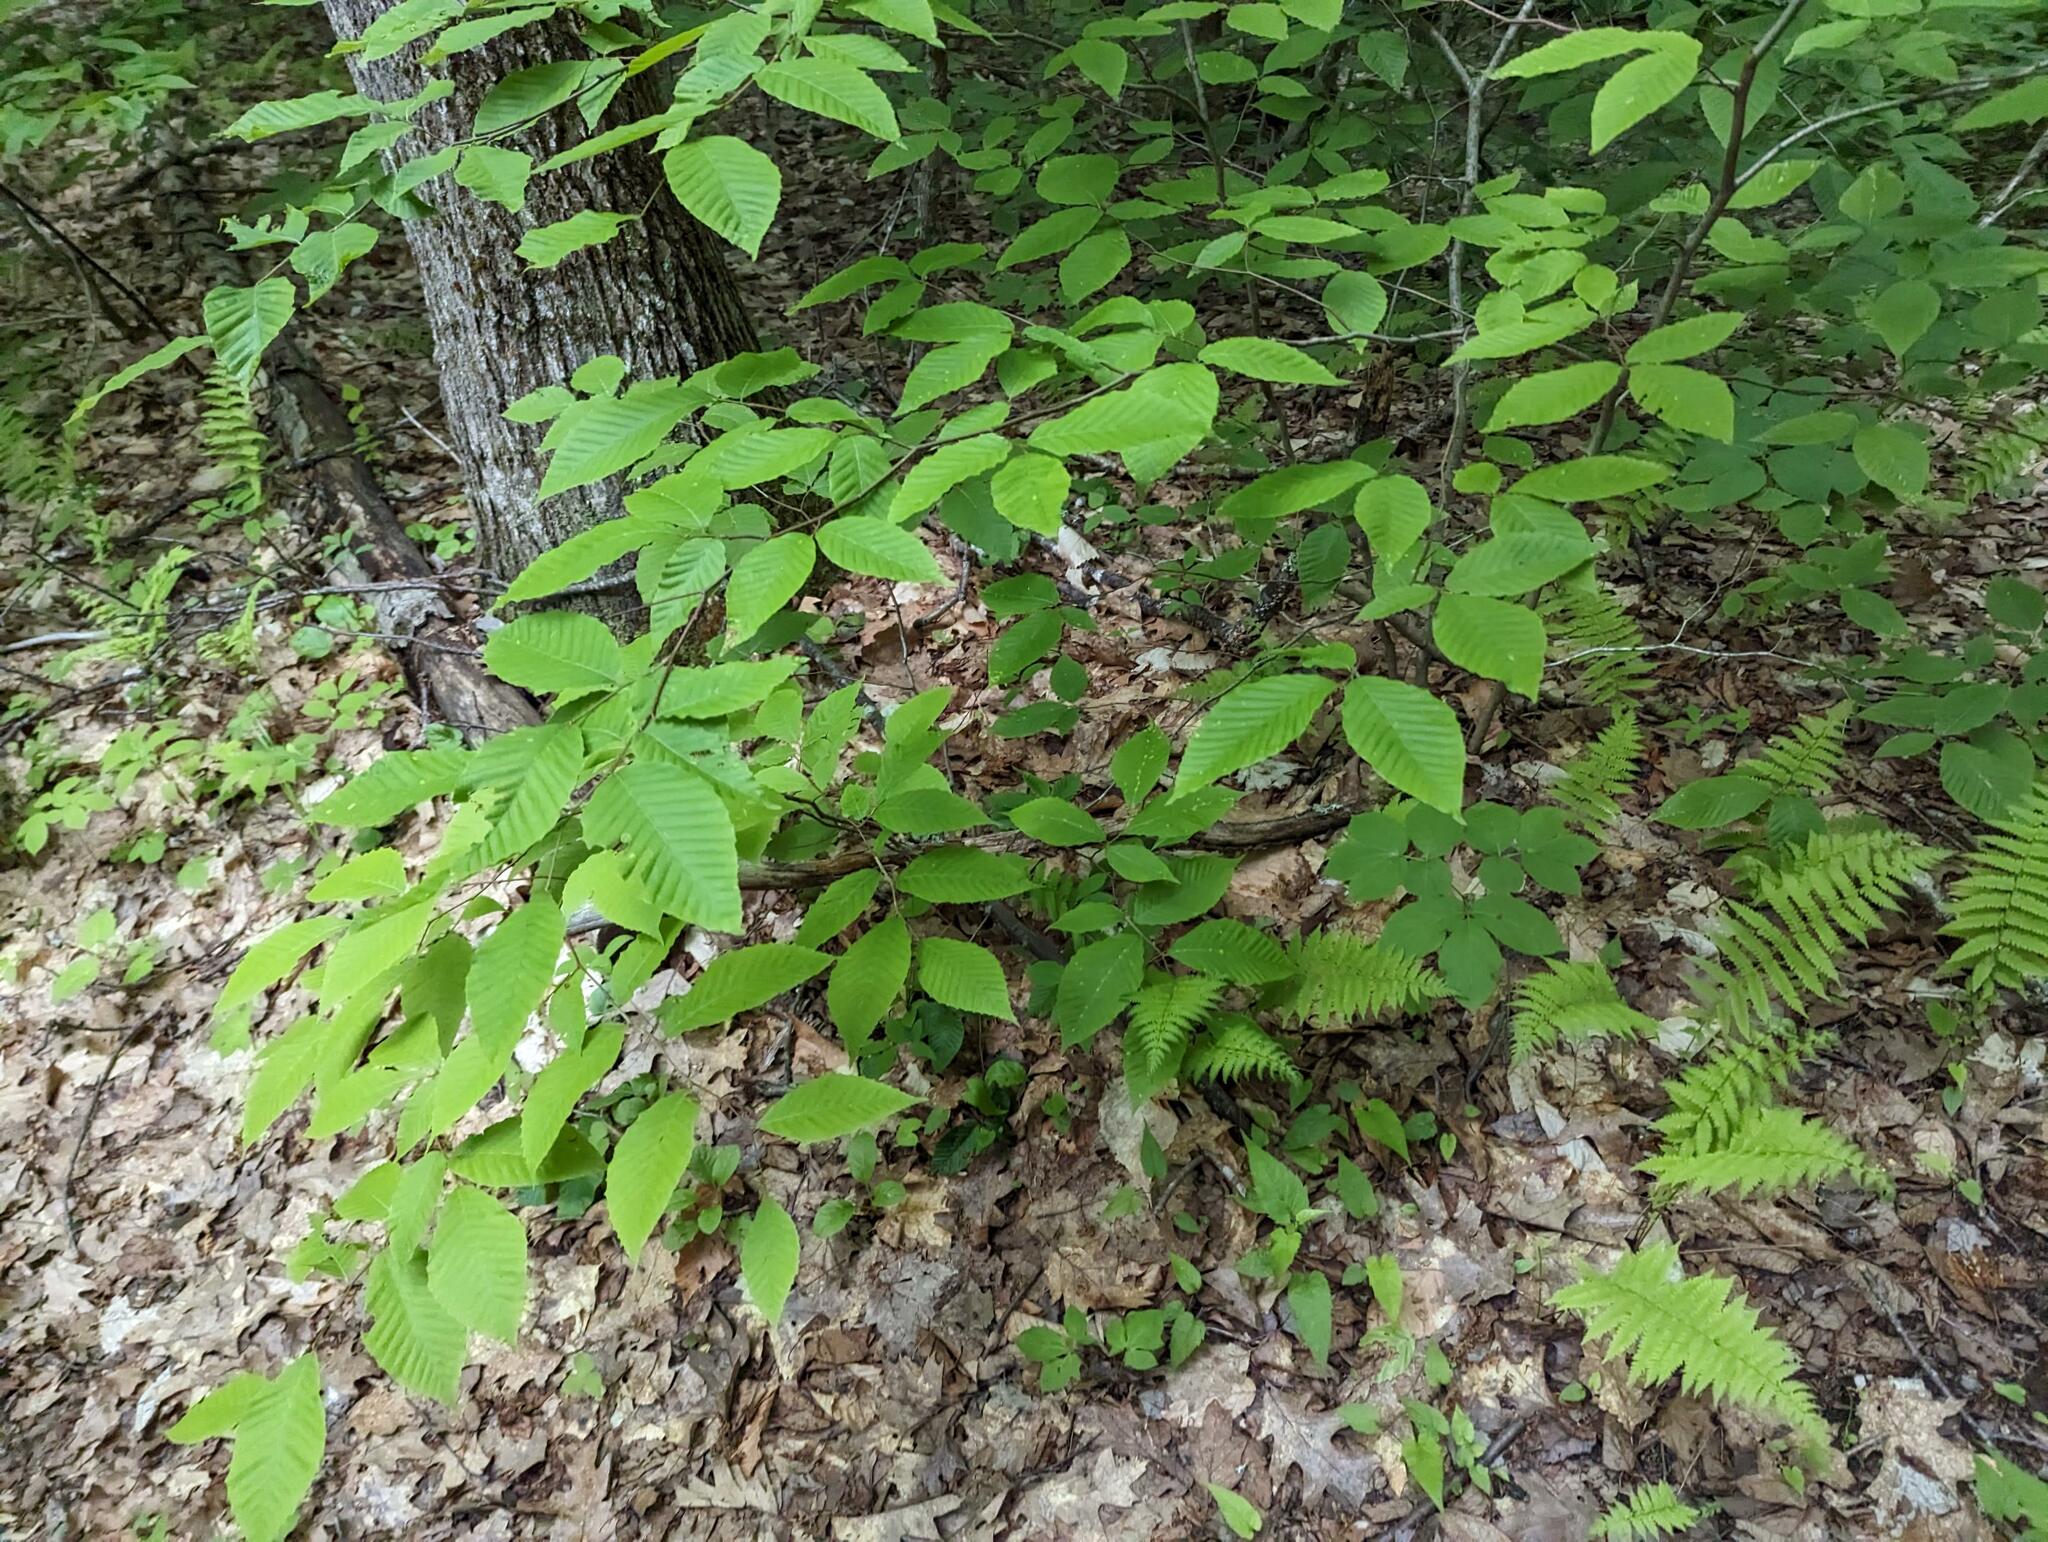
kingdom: Plantae
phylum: Tracheophyta
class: Magnoliopsida
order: Fagales
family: Fagaceae
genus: Fagus
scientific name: Fagus grandifolia
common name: American beech
